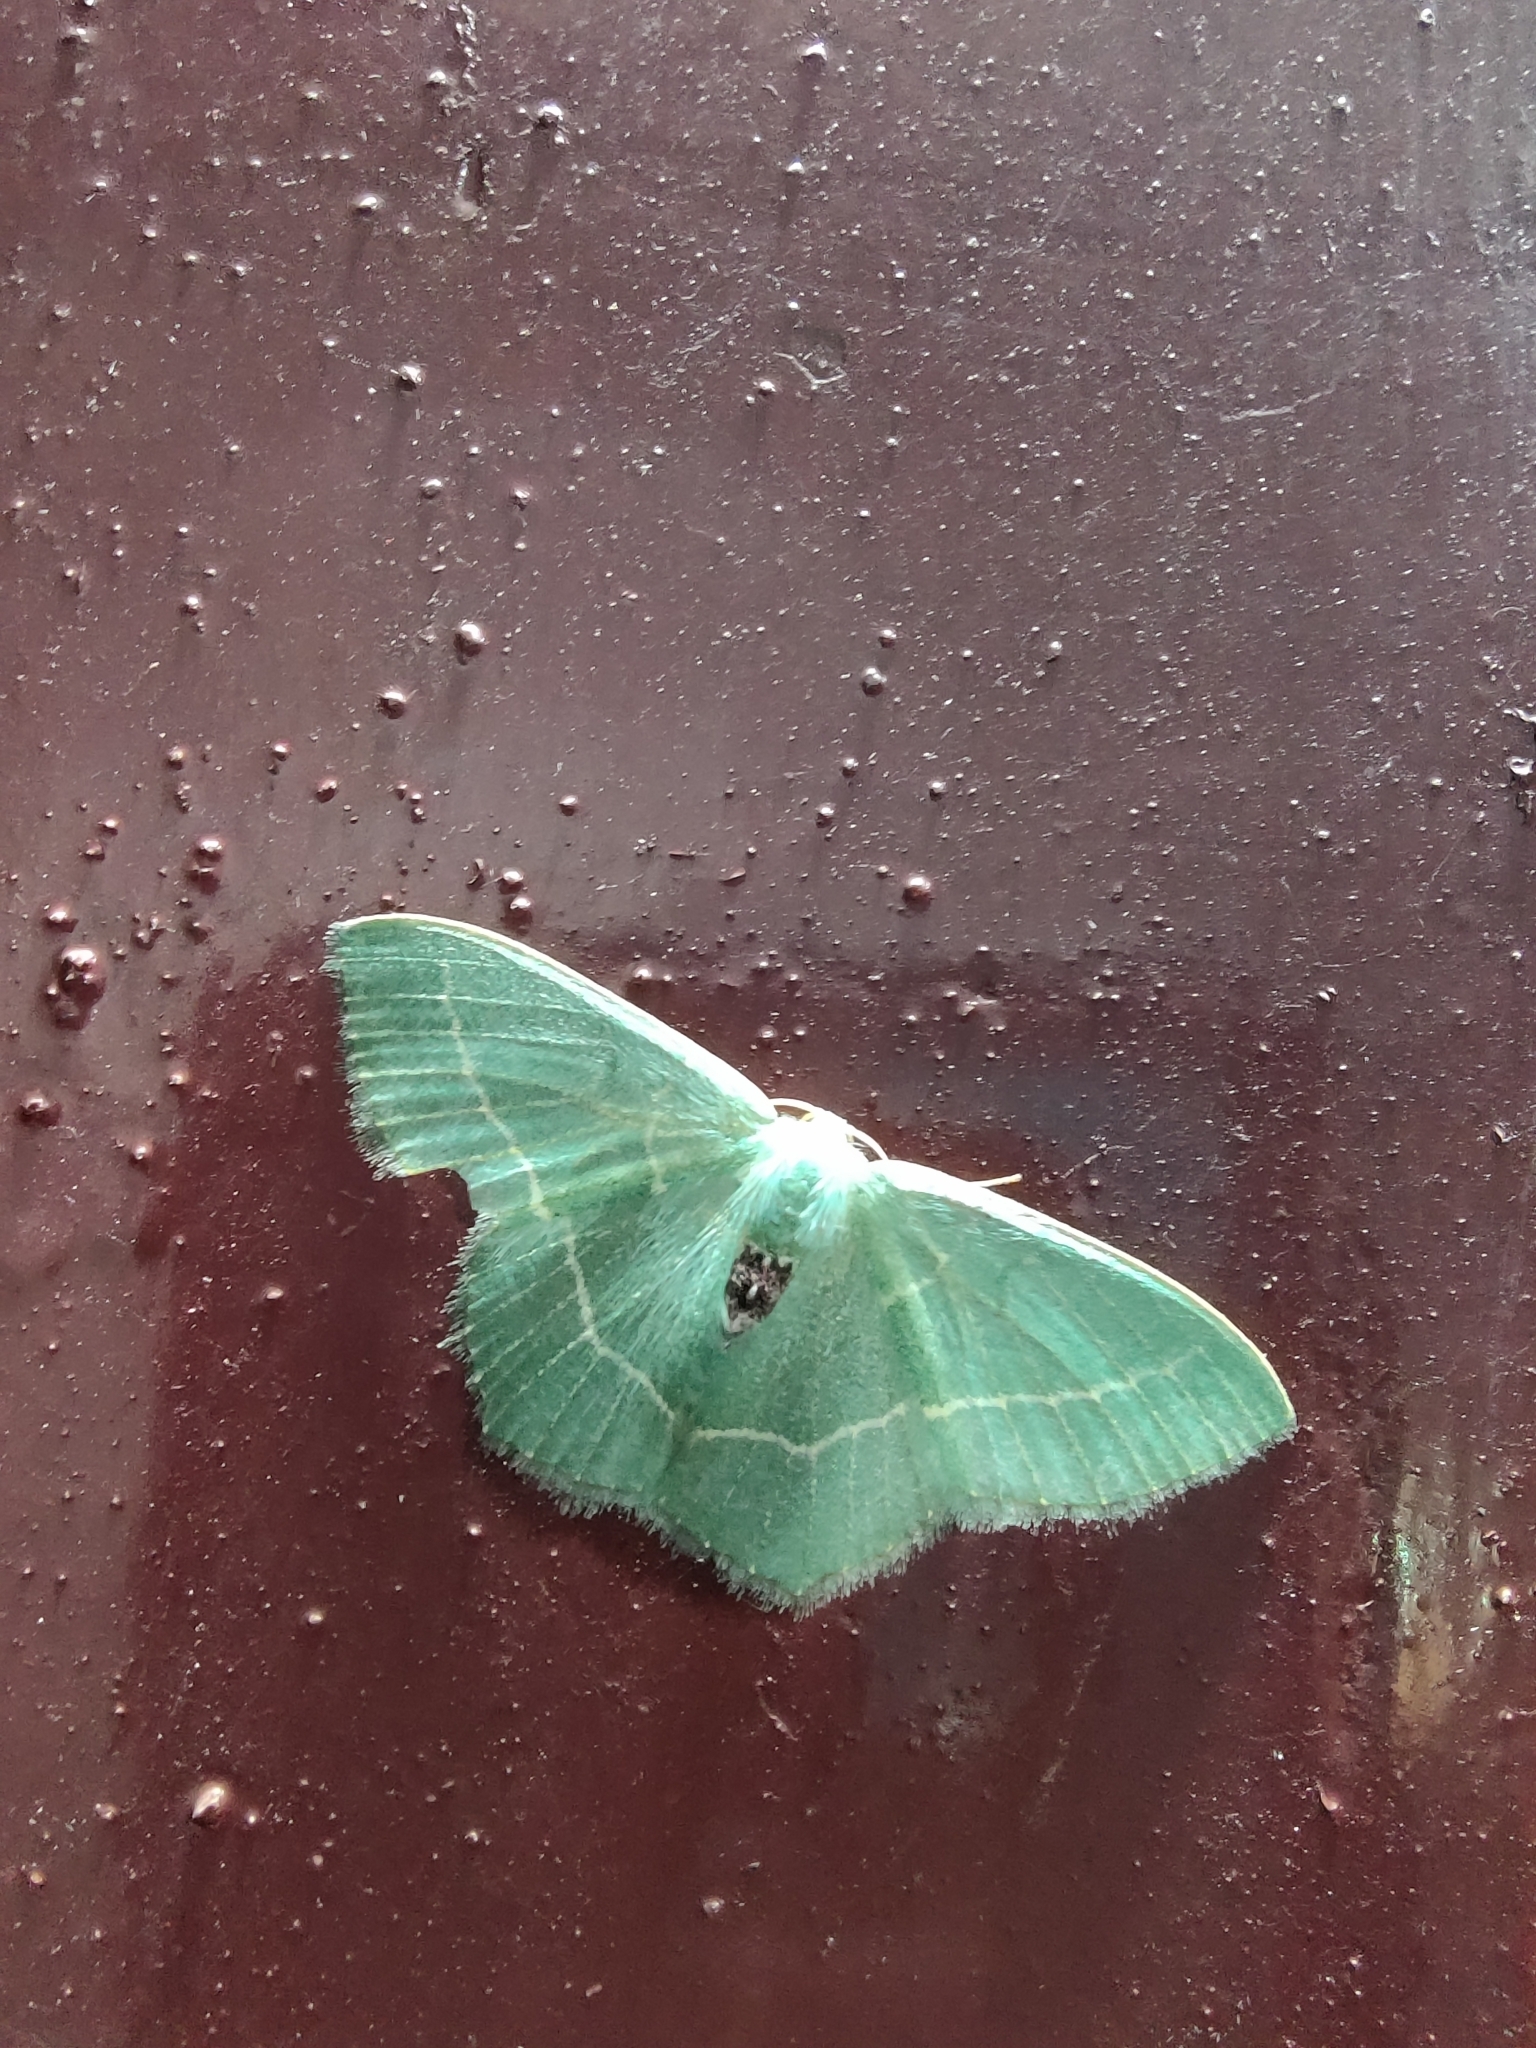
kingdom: Animalia
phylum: Arthropoda
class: Insecta
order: Lepidoptera
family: Geometridae
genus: Chlorissa
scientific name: Chlorissa distinctaria
